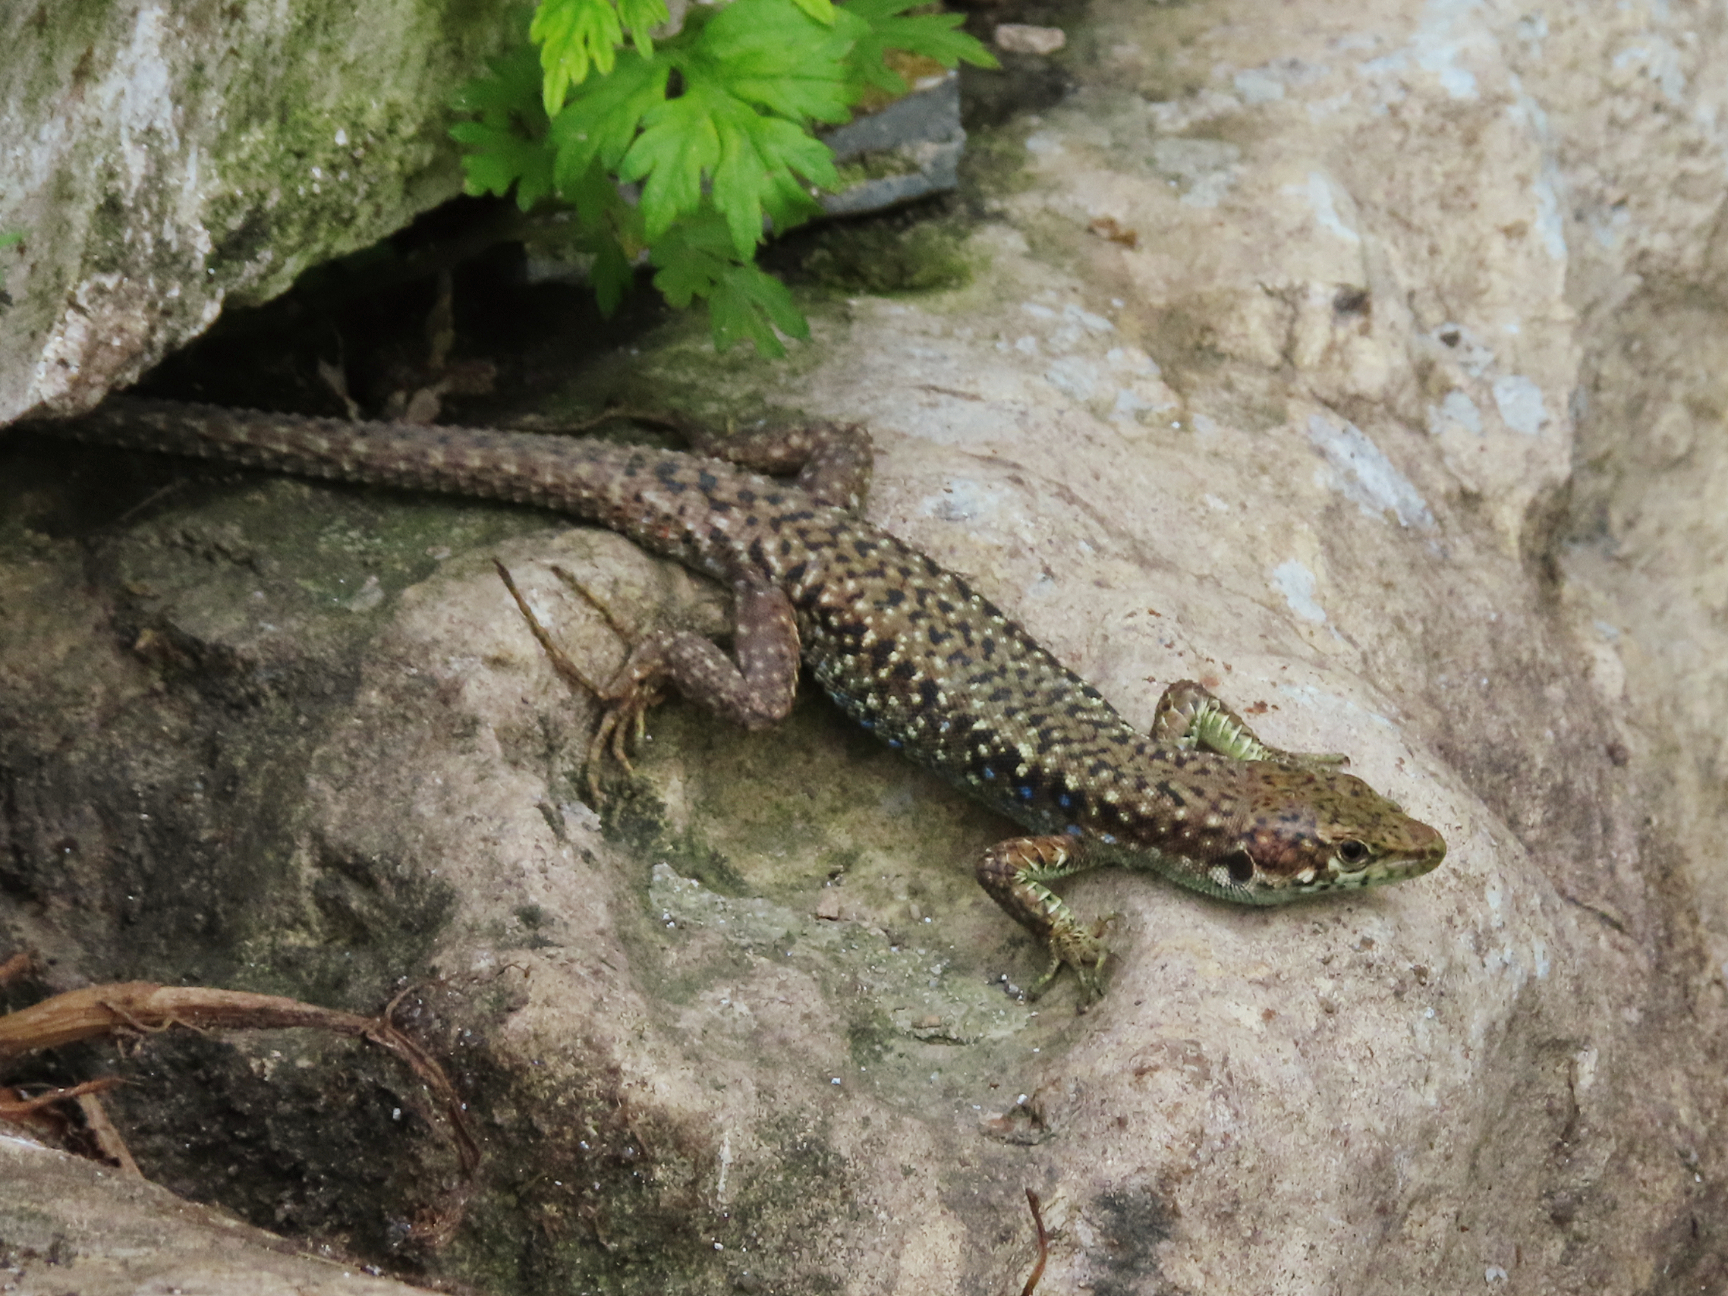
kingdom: Animalia
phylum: Chordata
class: Squamata
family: Lacertidae
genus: Darevskia
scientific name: Darevskia rudis
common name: Spiny-tailed lizard
